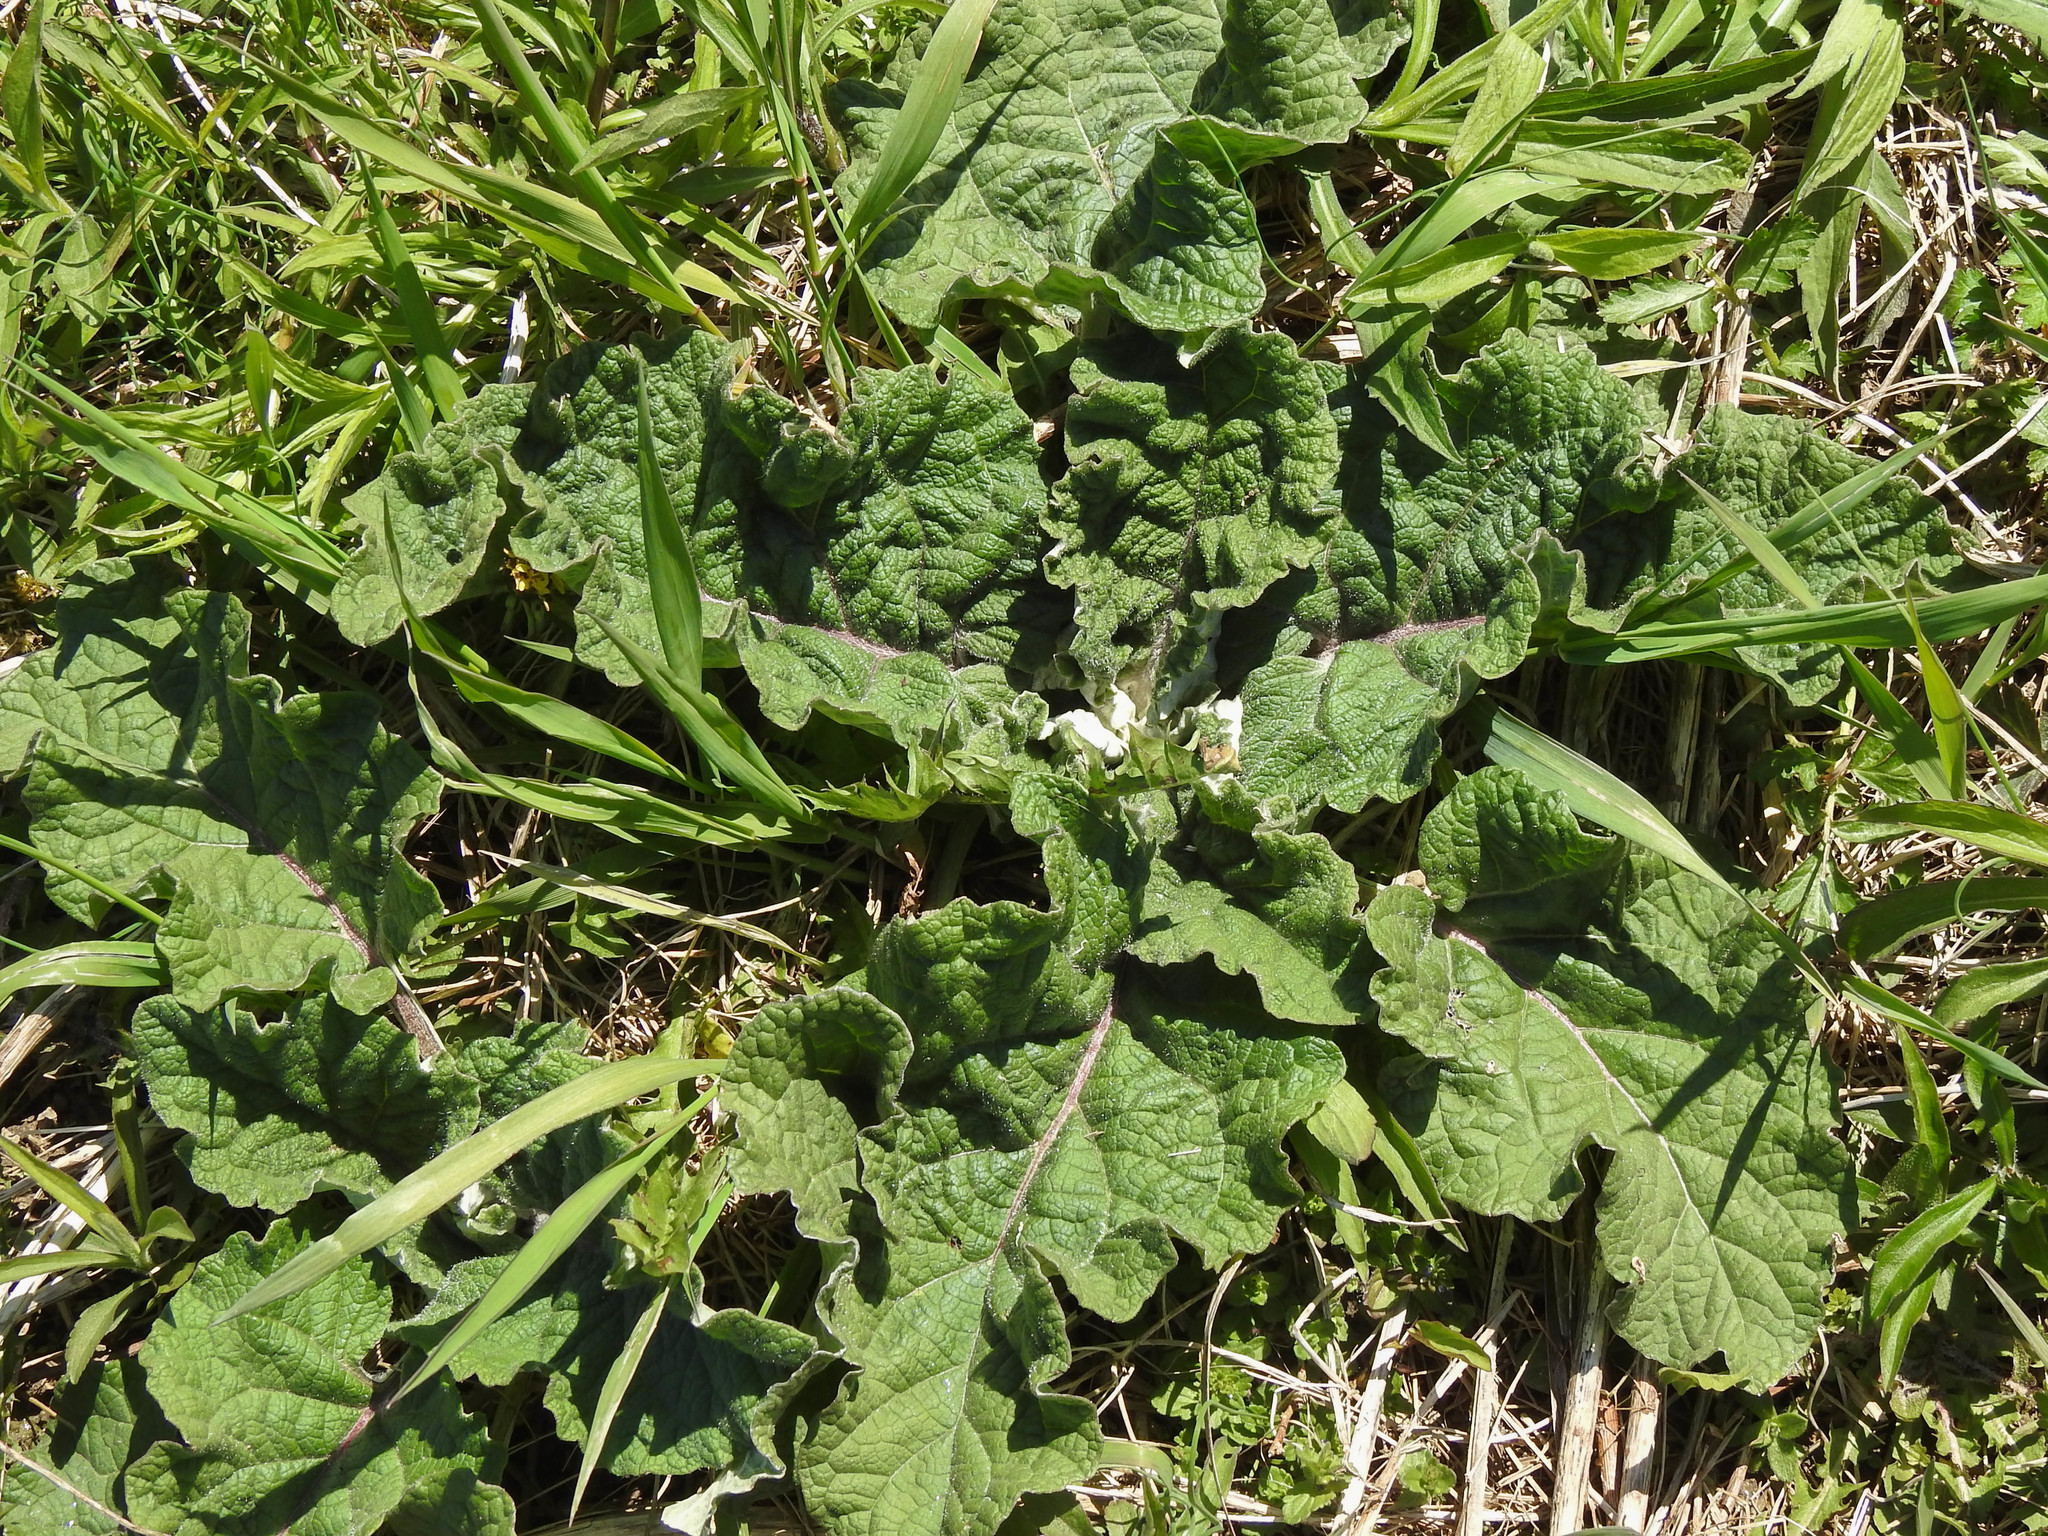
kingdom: Plantae
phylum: Tracheophyta
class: Magnoliopsida
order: Asterales
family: Asteraceae
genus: Arctium
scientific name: Arctium
